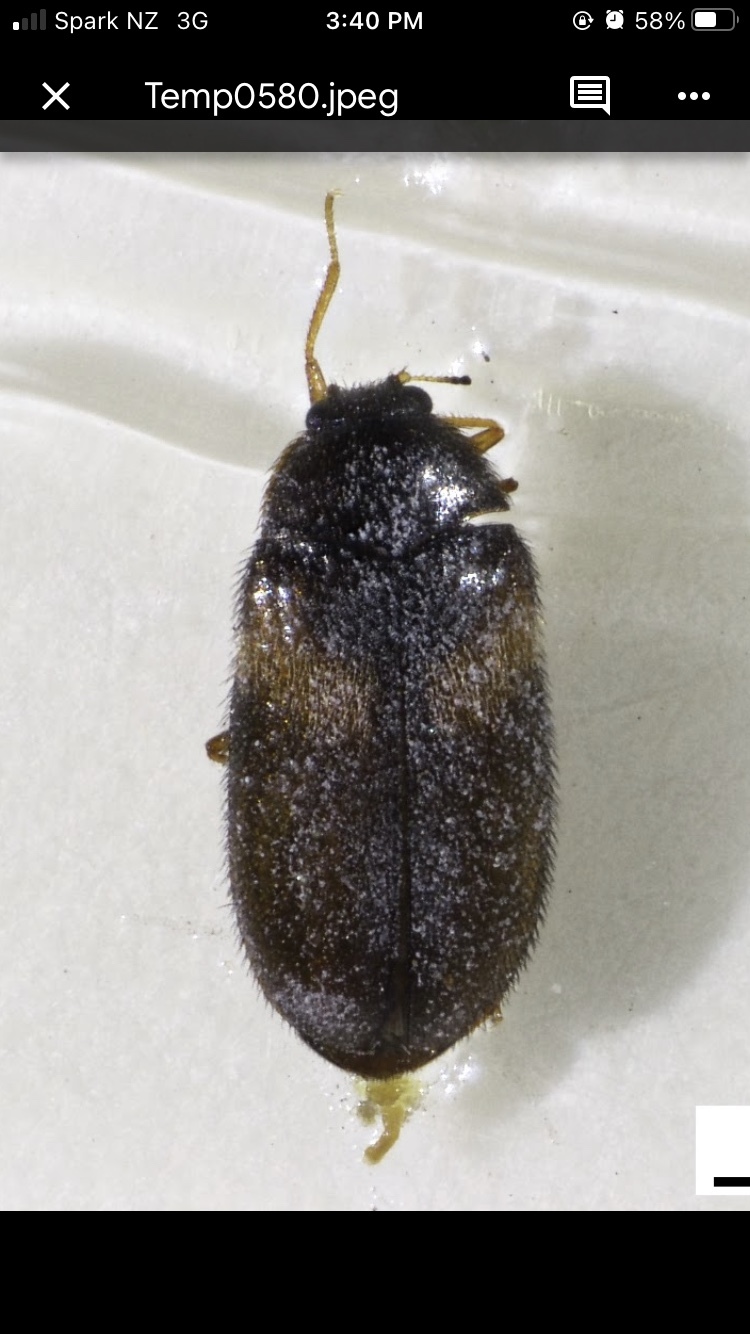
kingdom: Animalia
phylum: Arthropoda
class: Insecta
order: Coleoptera
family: Dermestidae
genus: Reesa
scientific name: Reesa vespulae
